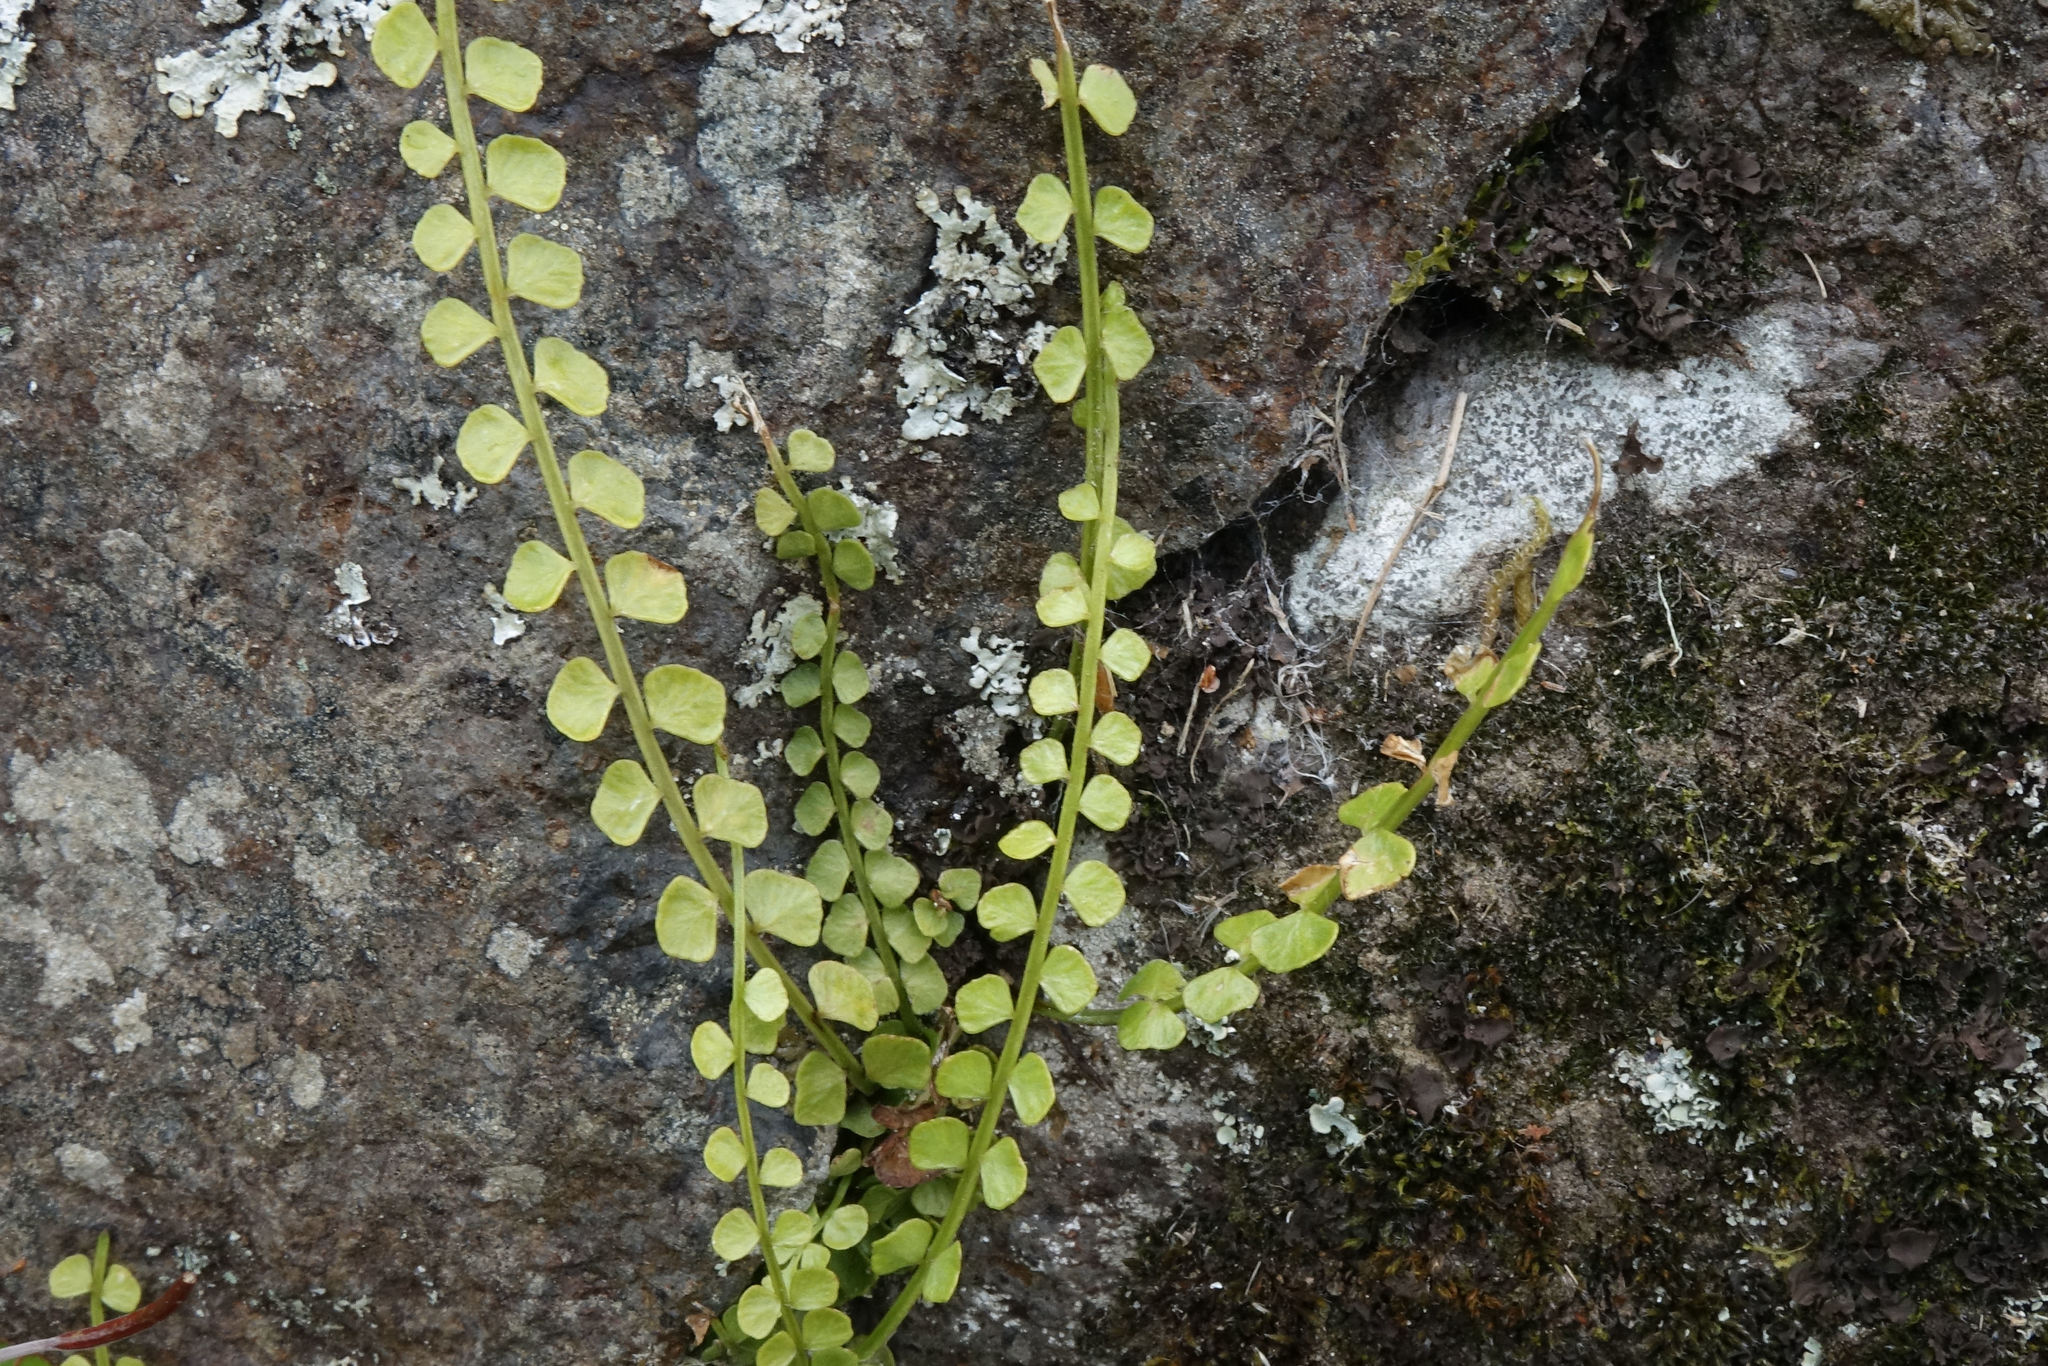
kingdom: Plantae
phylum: Tracheophyta
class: Polypodiopsida
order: Polypodiales
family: Aspleniaceae
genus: Asplenium
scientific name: Asplenium flabellifolium
